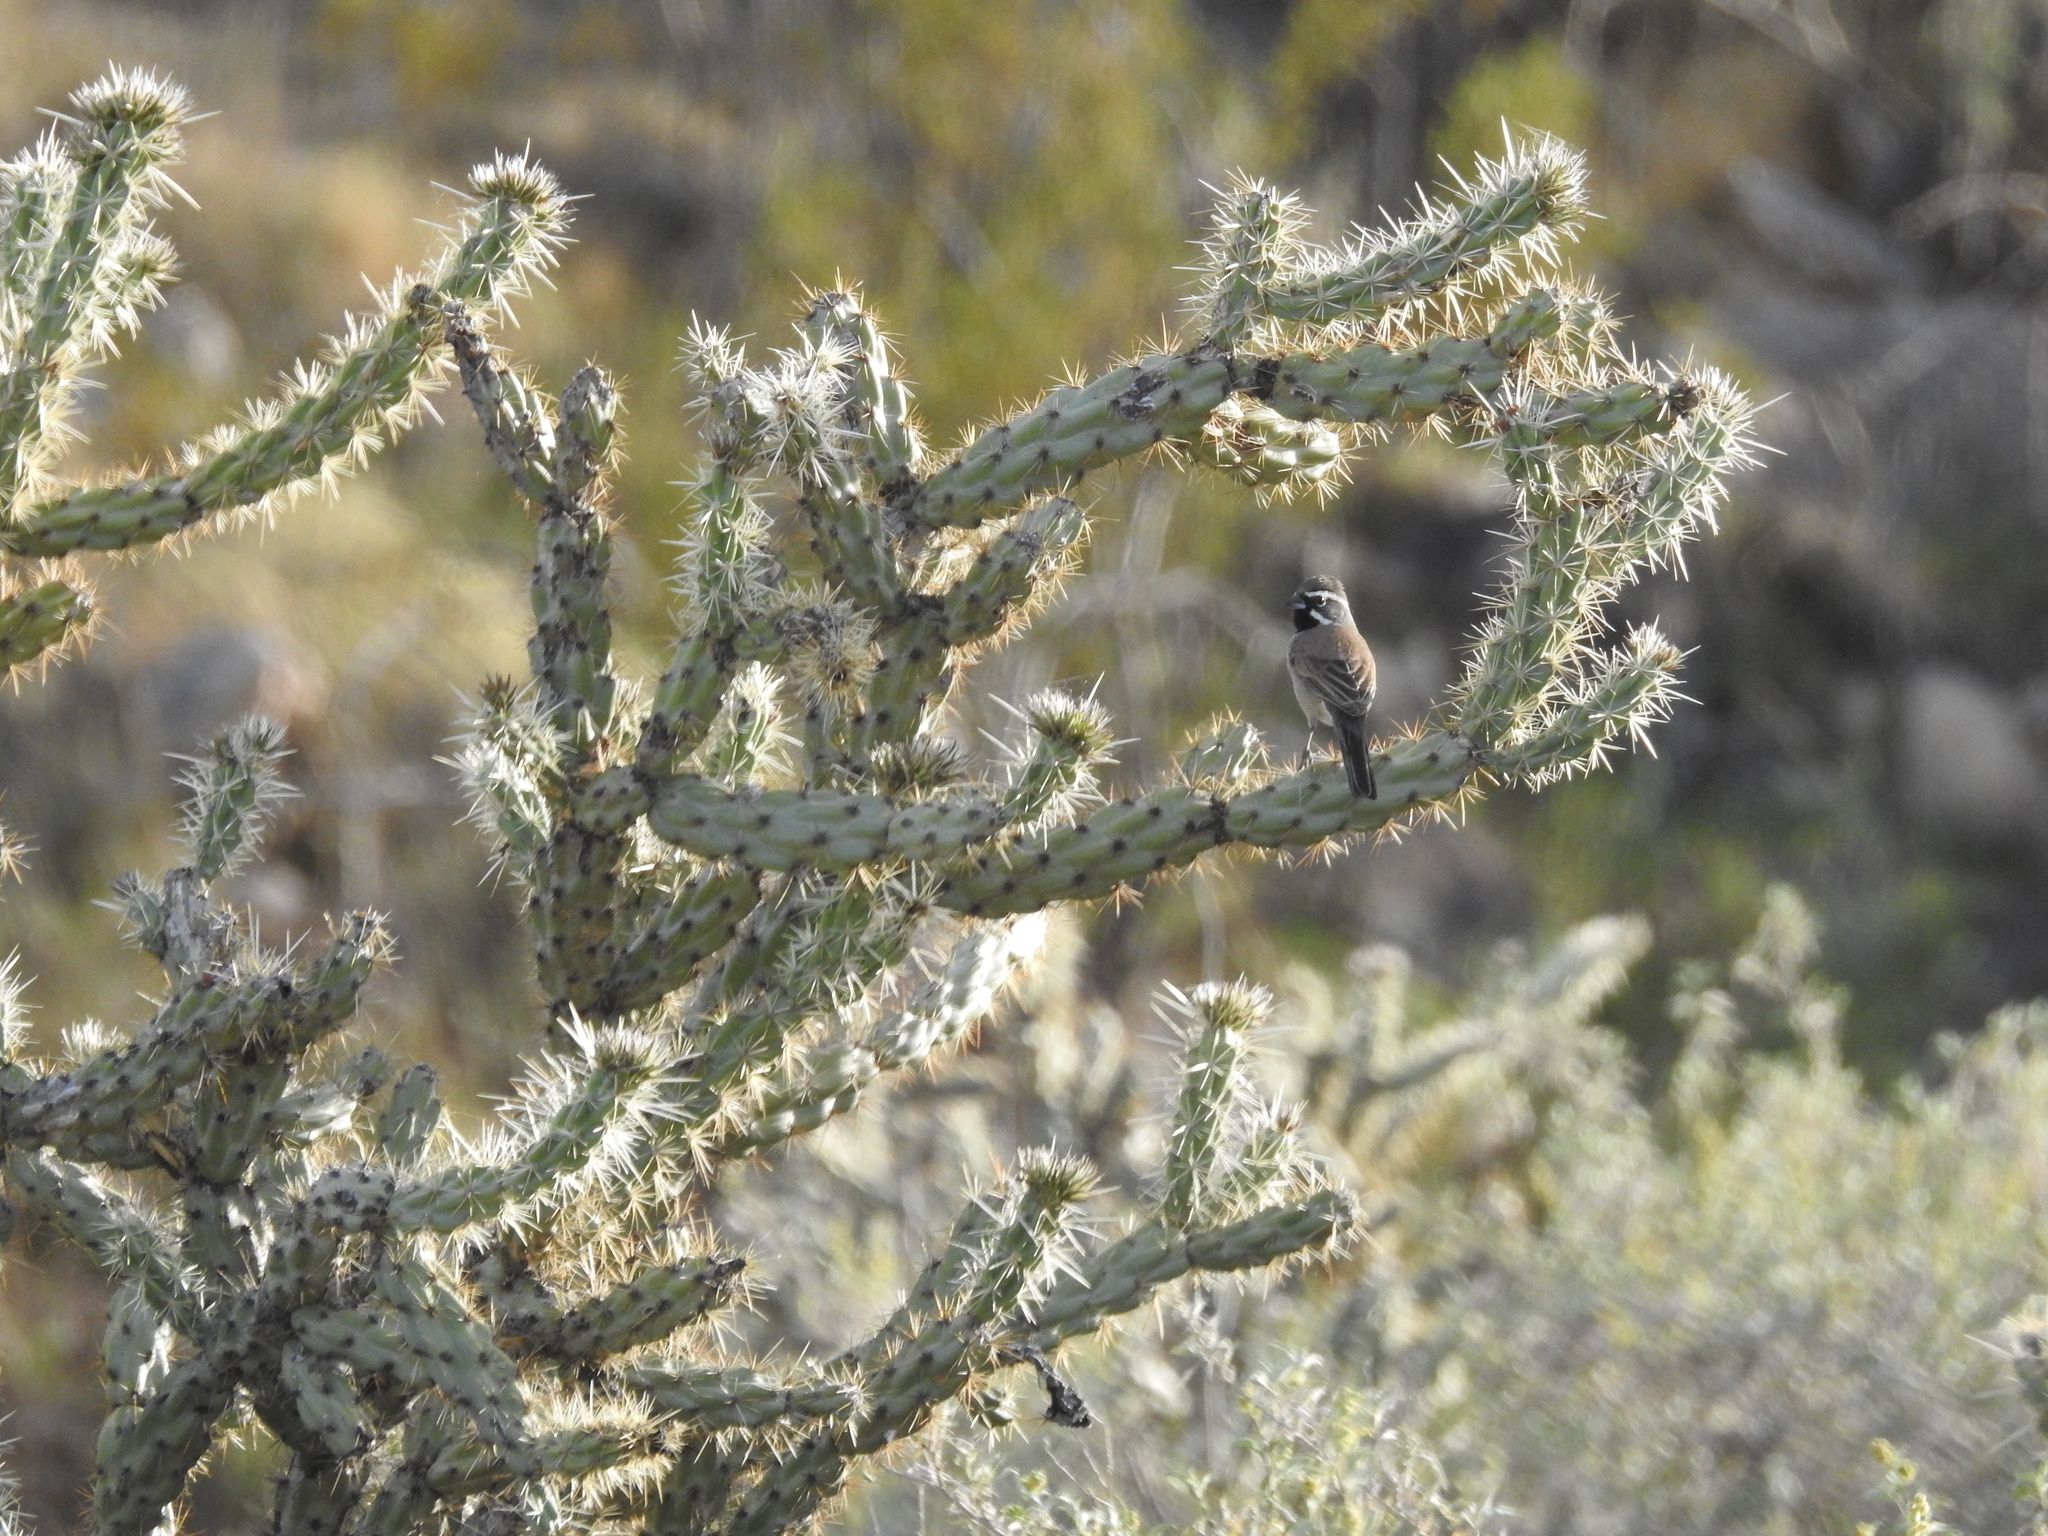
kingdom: Animalia
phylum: Chordata
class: Aves
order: Passeriformes
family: Passerellidae
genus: Amphispiza
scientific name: Amphispiza bilineata
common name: Black-throated sparrow
